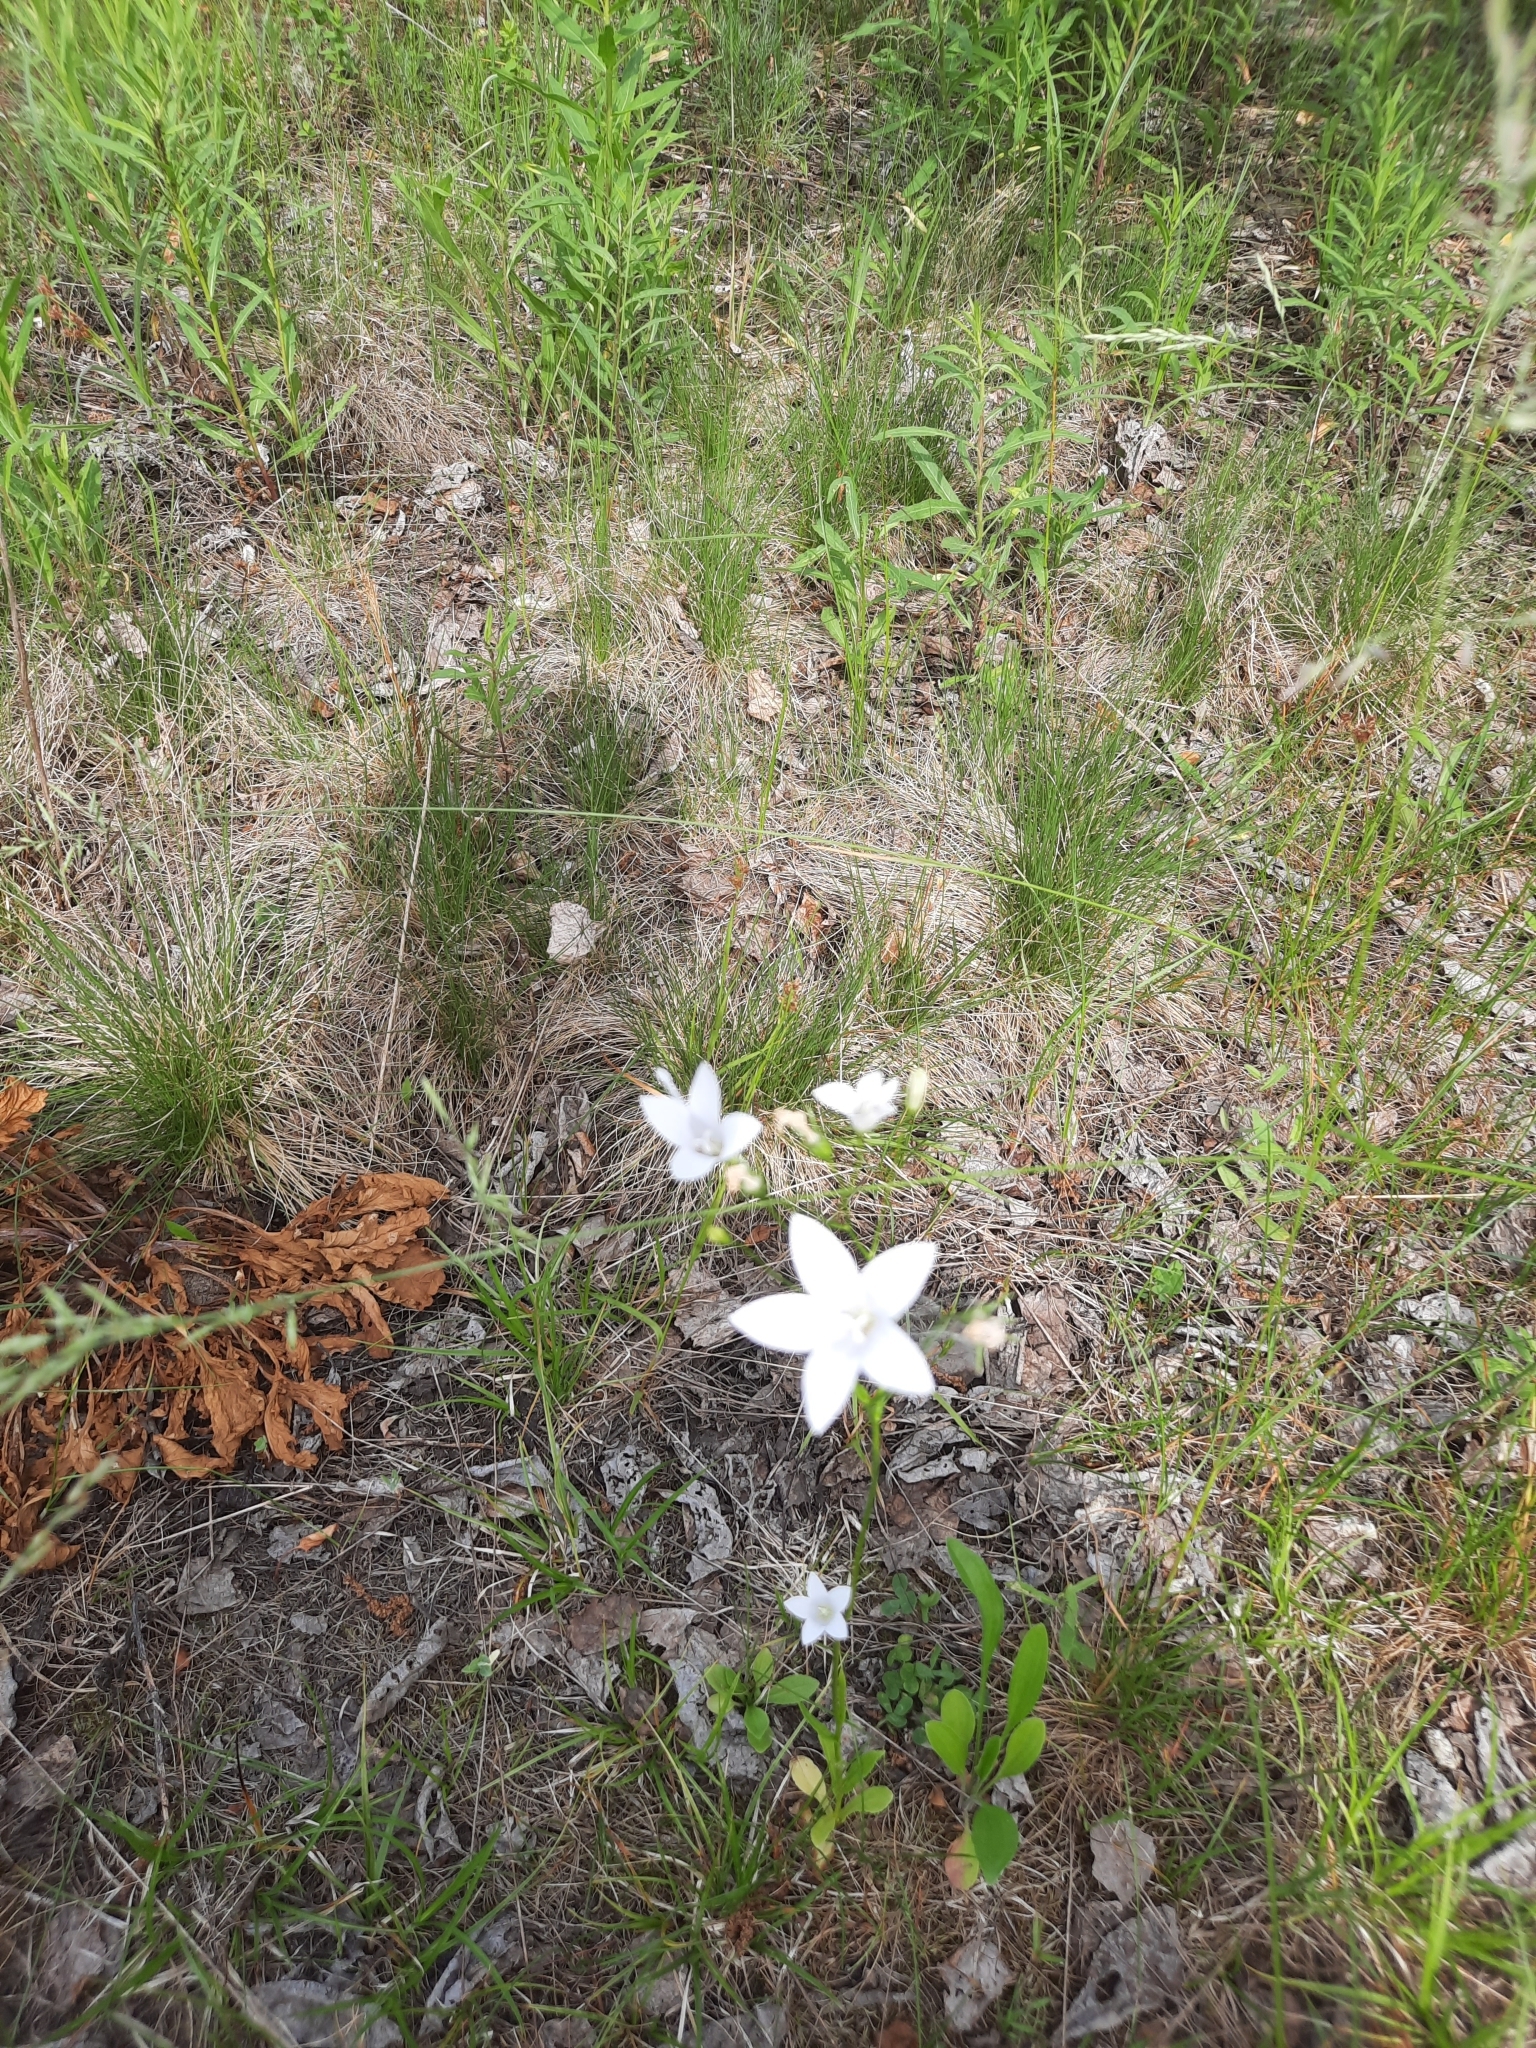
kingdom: Plantae
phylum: Tracheophyta
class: Magnoliopsida
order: Asterales
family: Campanulaceae
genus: Campanula
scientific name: Campanula patula
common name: Spreading bellflower
